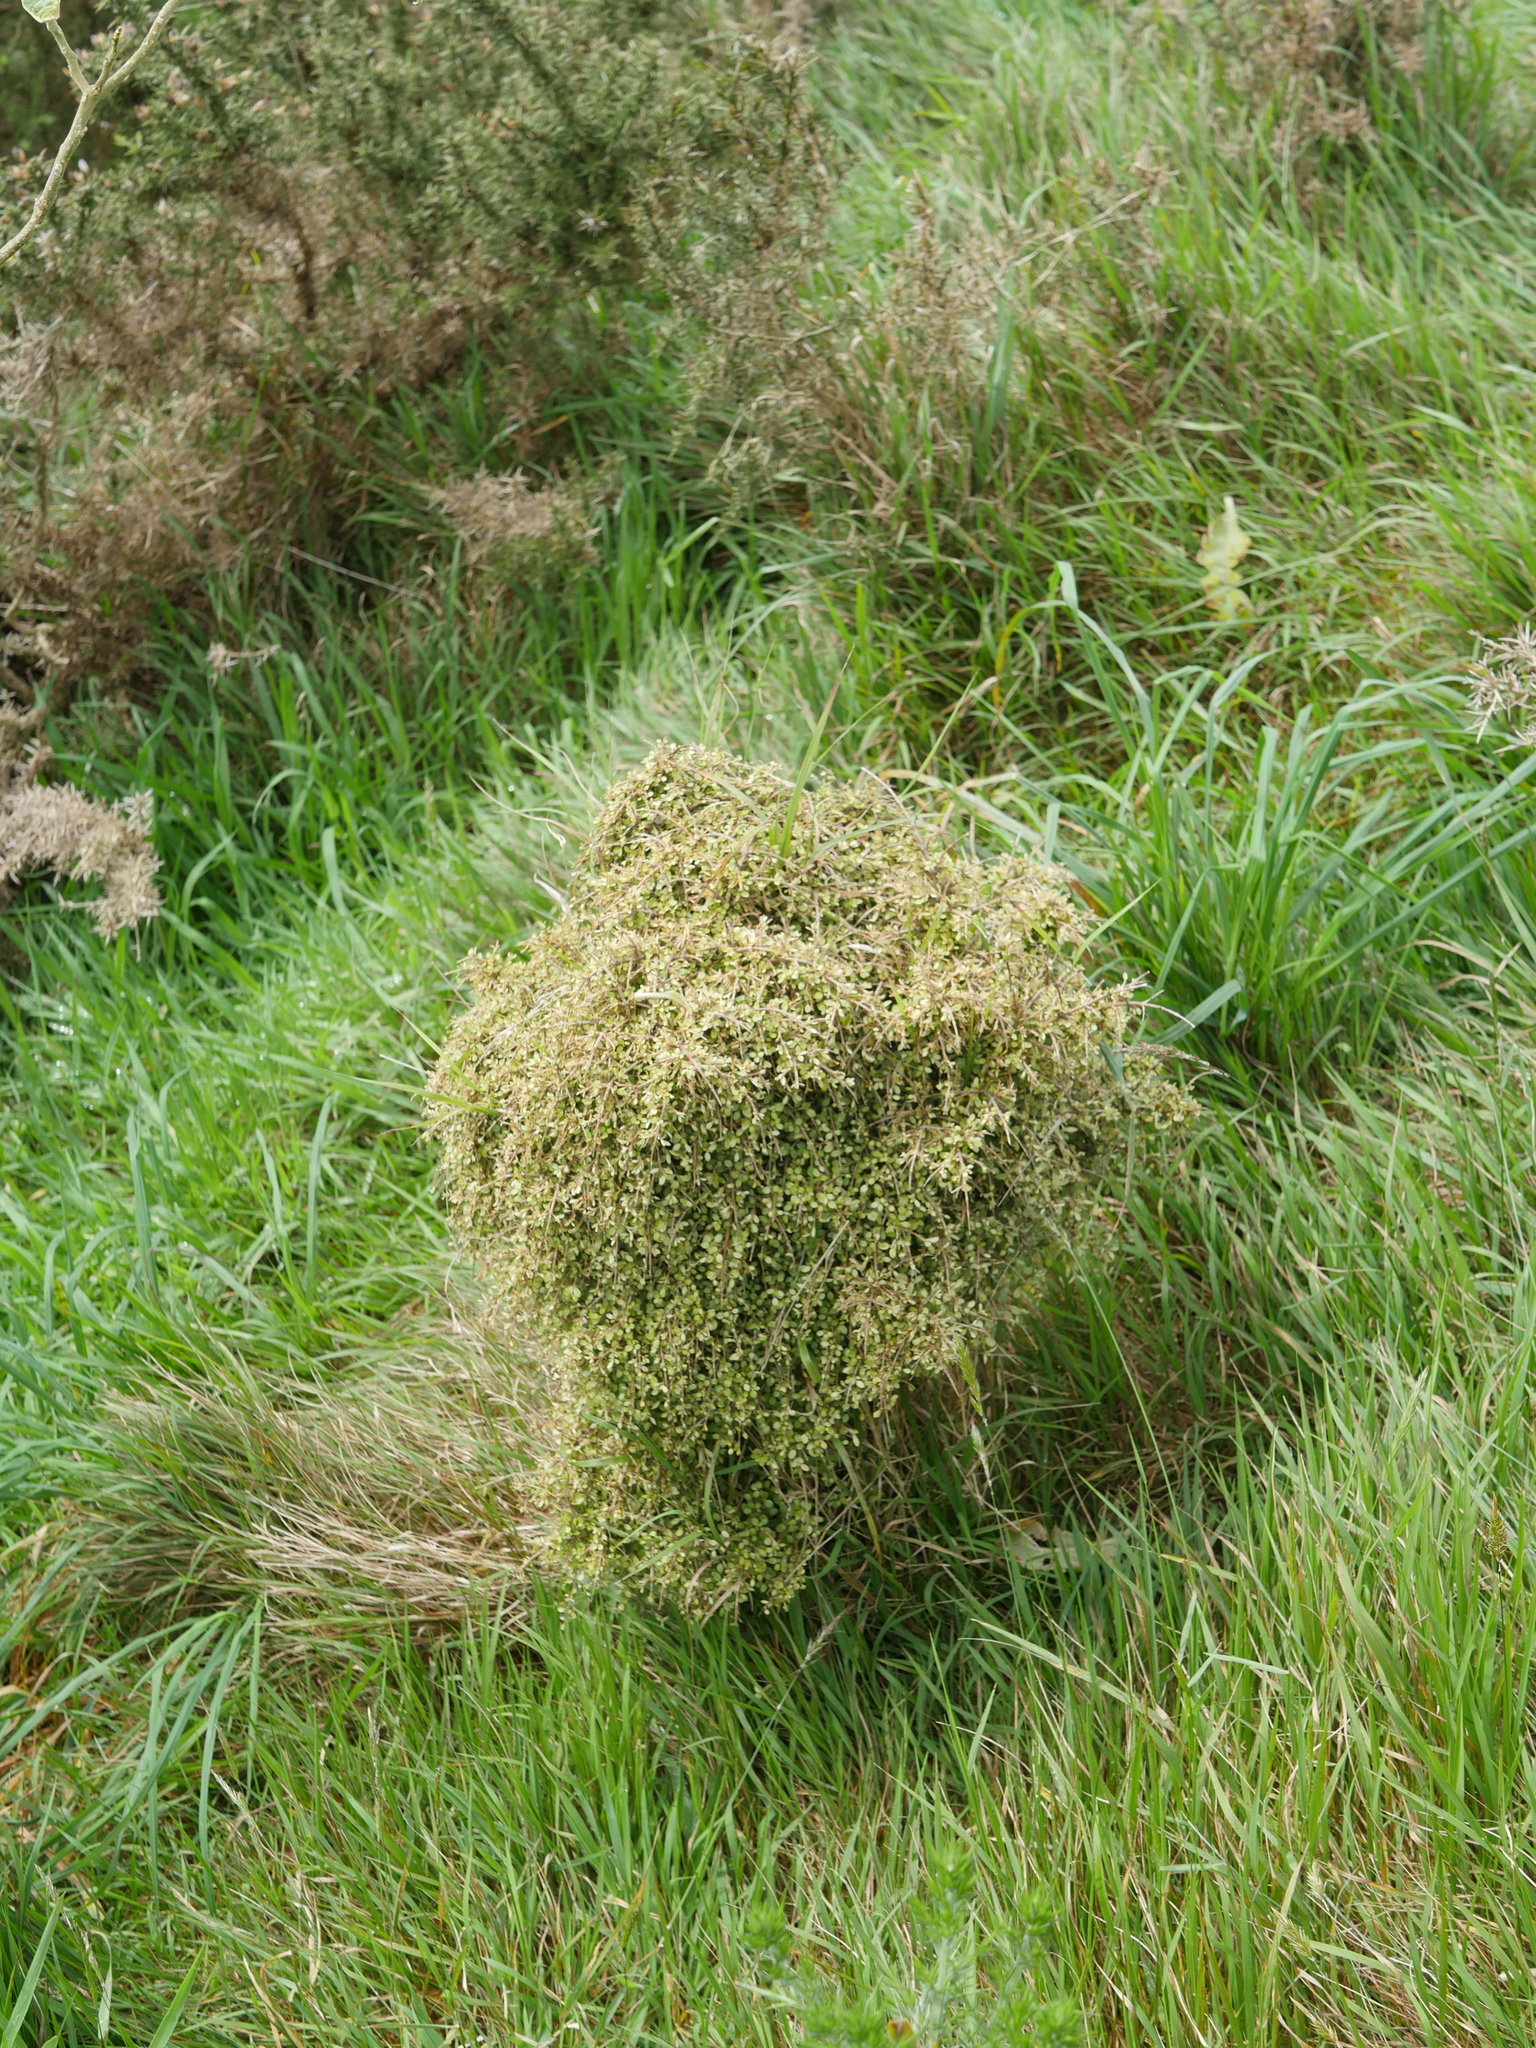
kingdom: Plantae
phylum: Tracheophyta
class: Magnoliopsida
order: Gentianales
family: Rubiaceae
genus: Coprosma
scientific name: Coprosma rhamnoides
